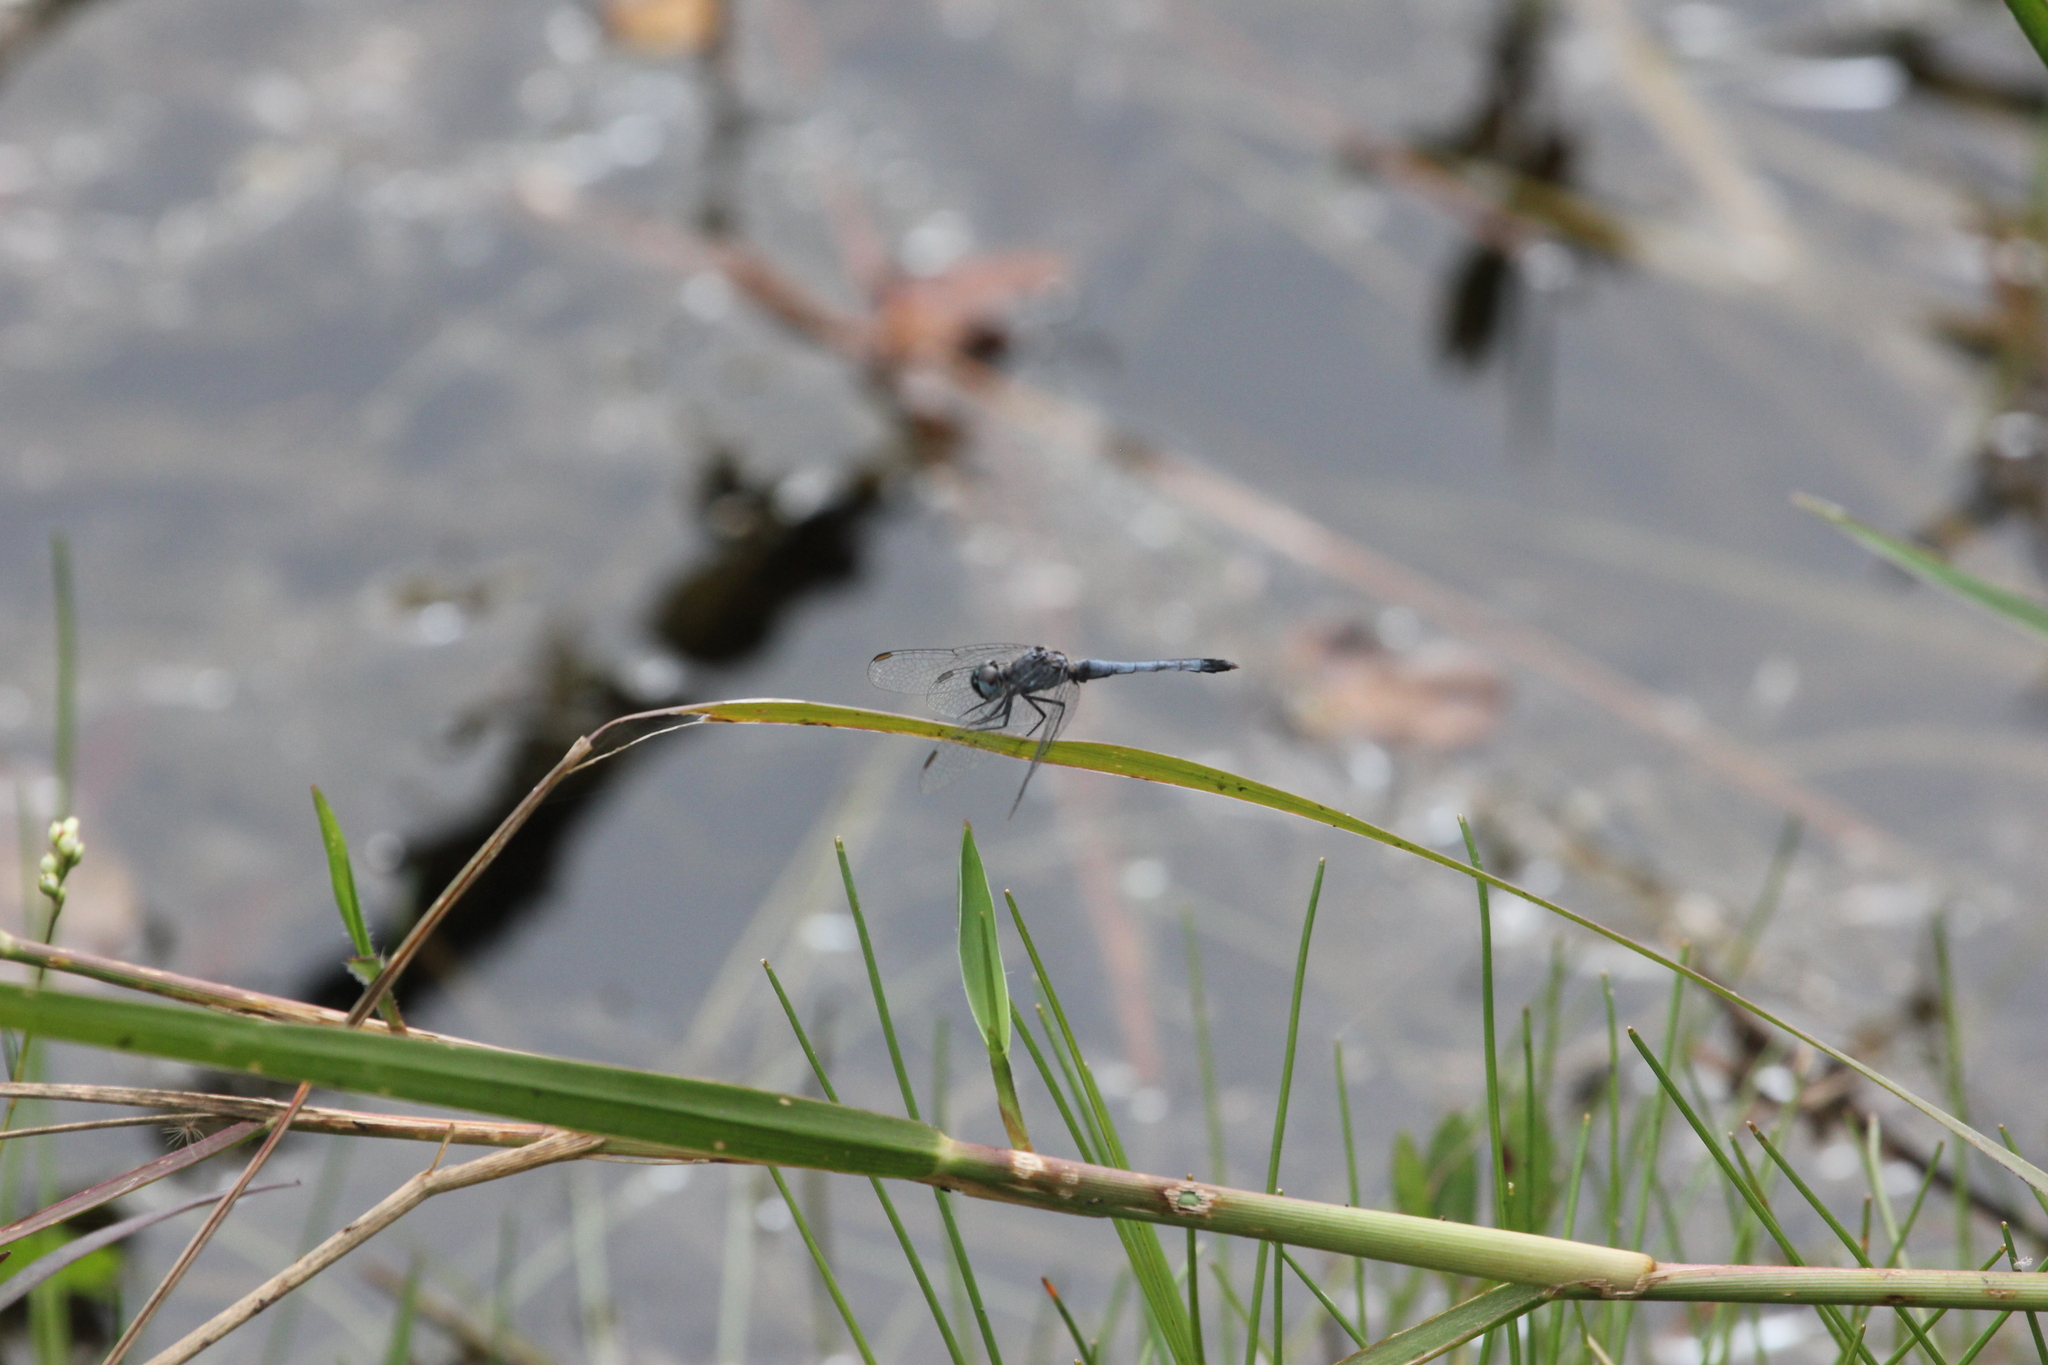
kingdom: Animalia
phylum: Arthropoda
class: Insecta
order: Odonata
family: Libellulidae
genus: Erythrodiplax
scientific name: Erythrodiplax minuscula
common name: Little blue dragonlet
